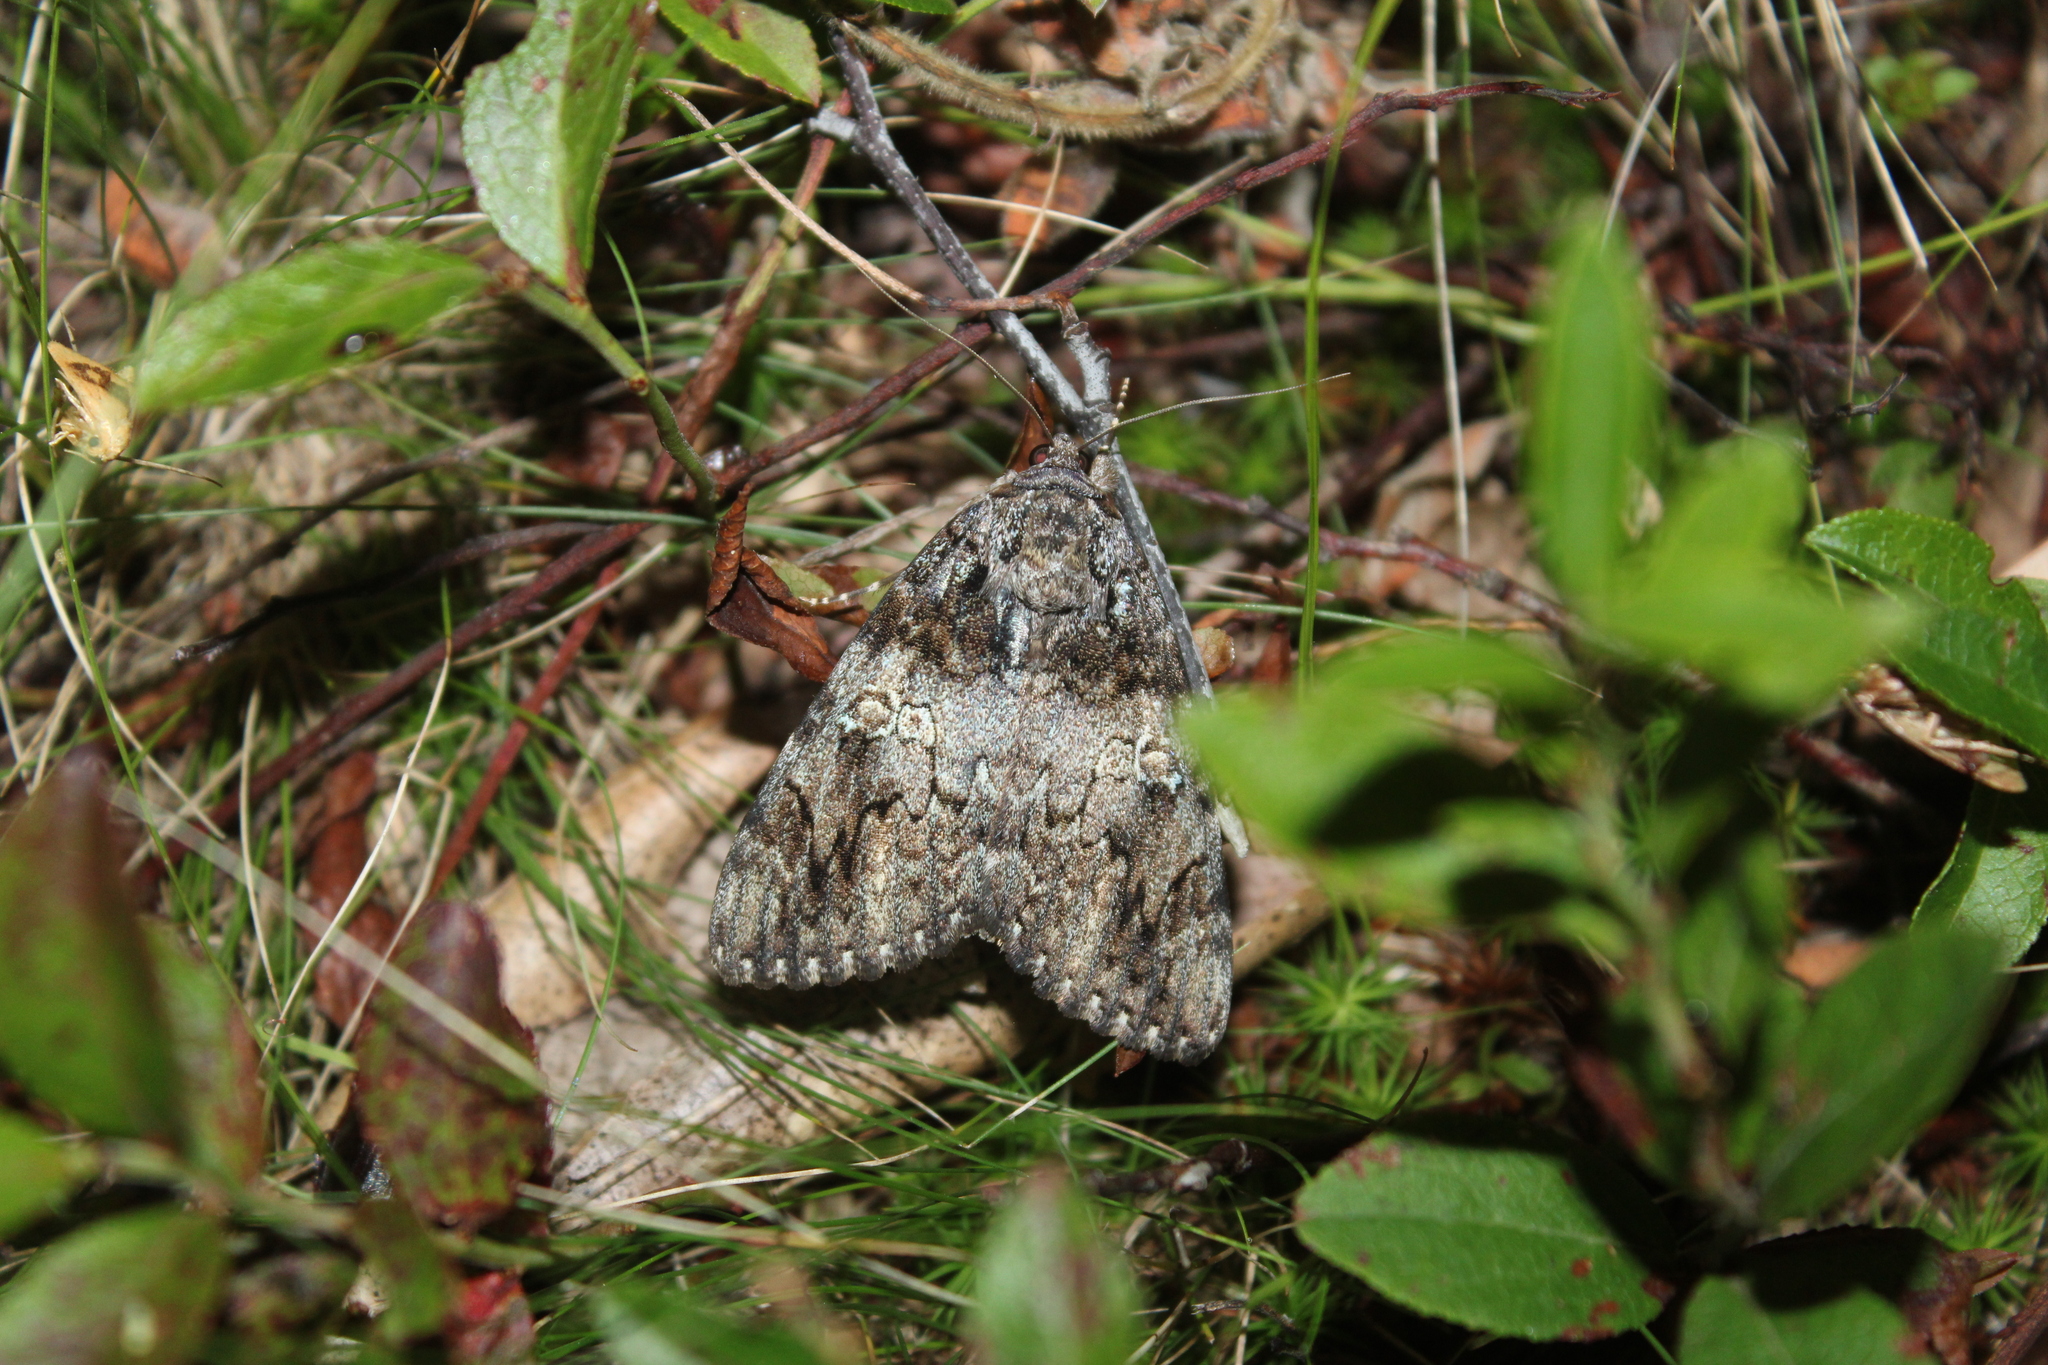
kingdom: Animalia
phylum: Arthropoda
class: Insecta
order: Lepidoptera
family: Erebidae
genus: Catocala
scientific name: Catocala ilia
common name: Ilia underwing
